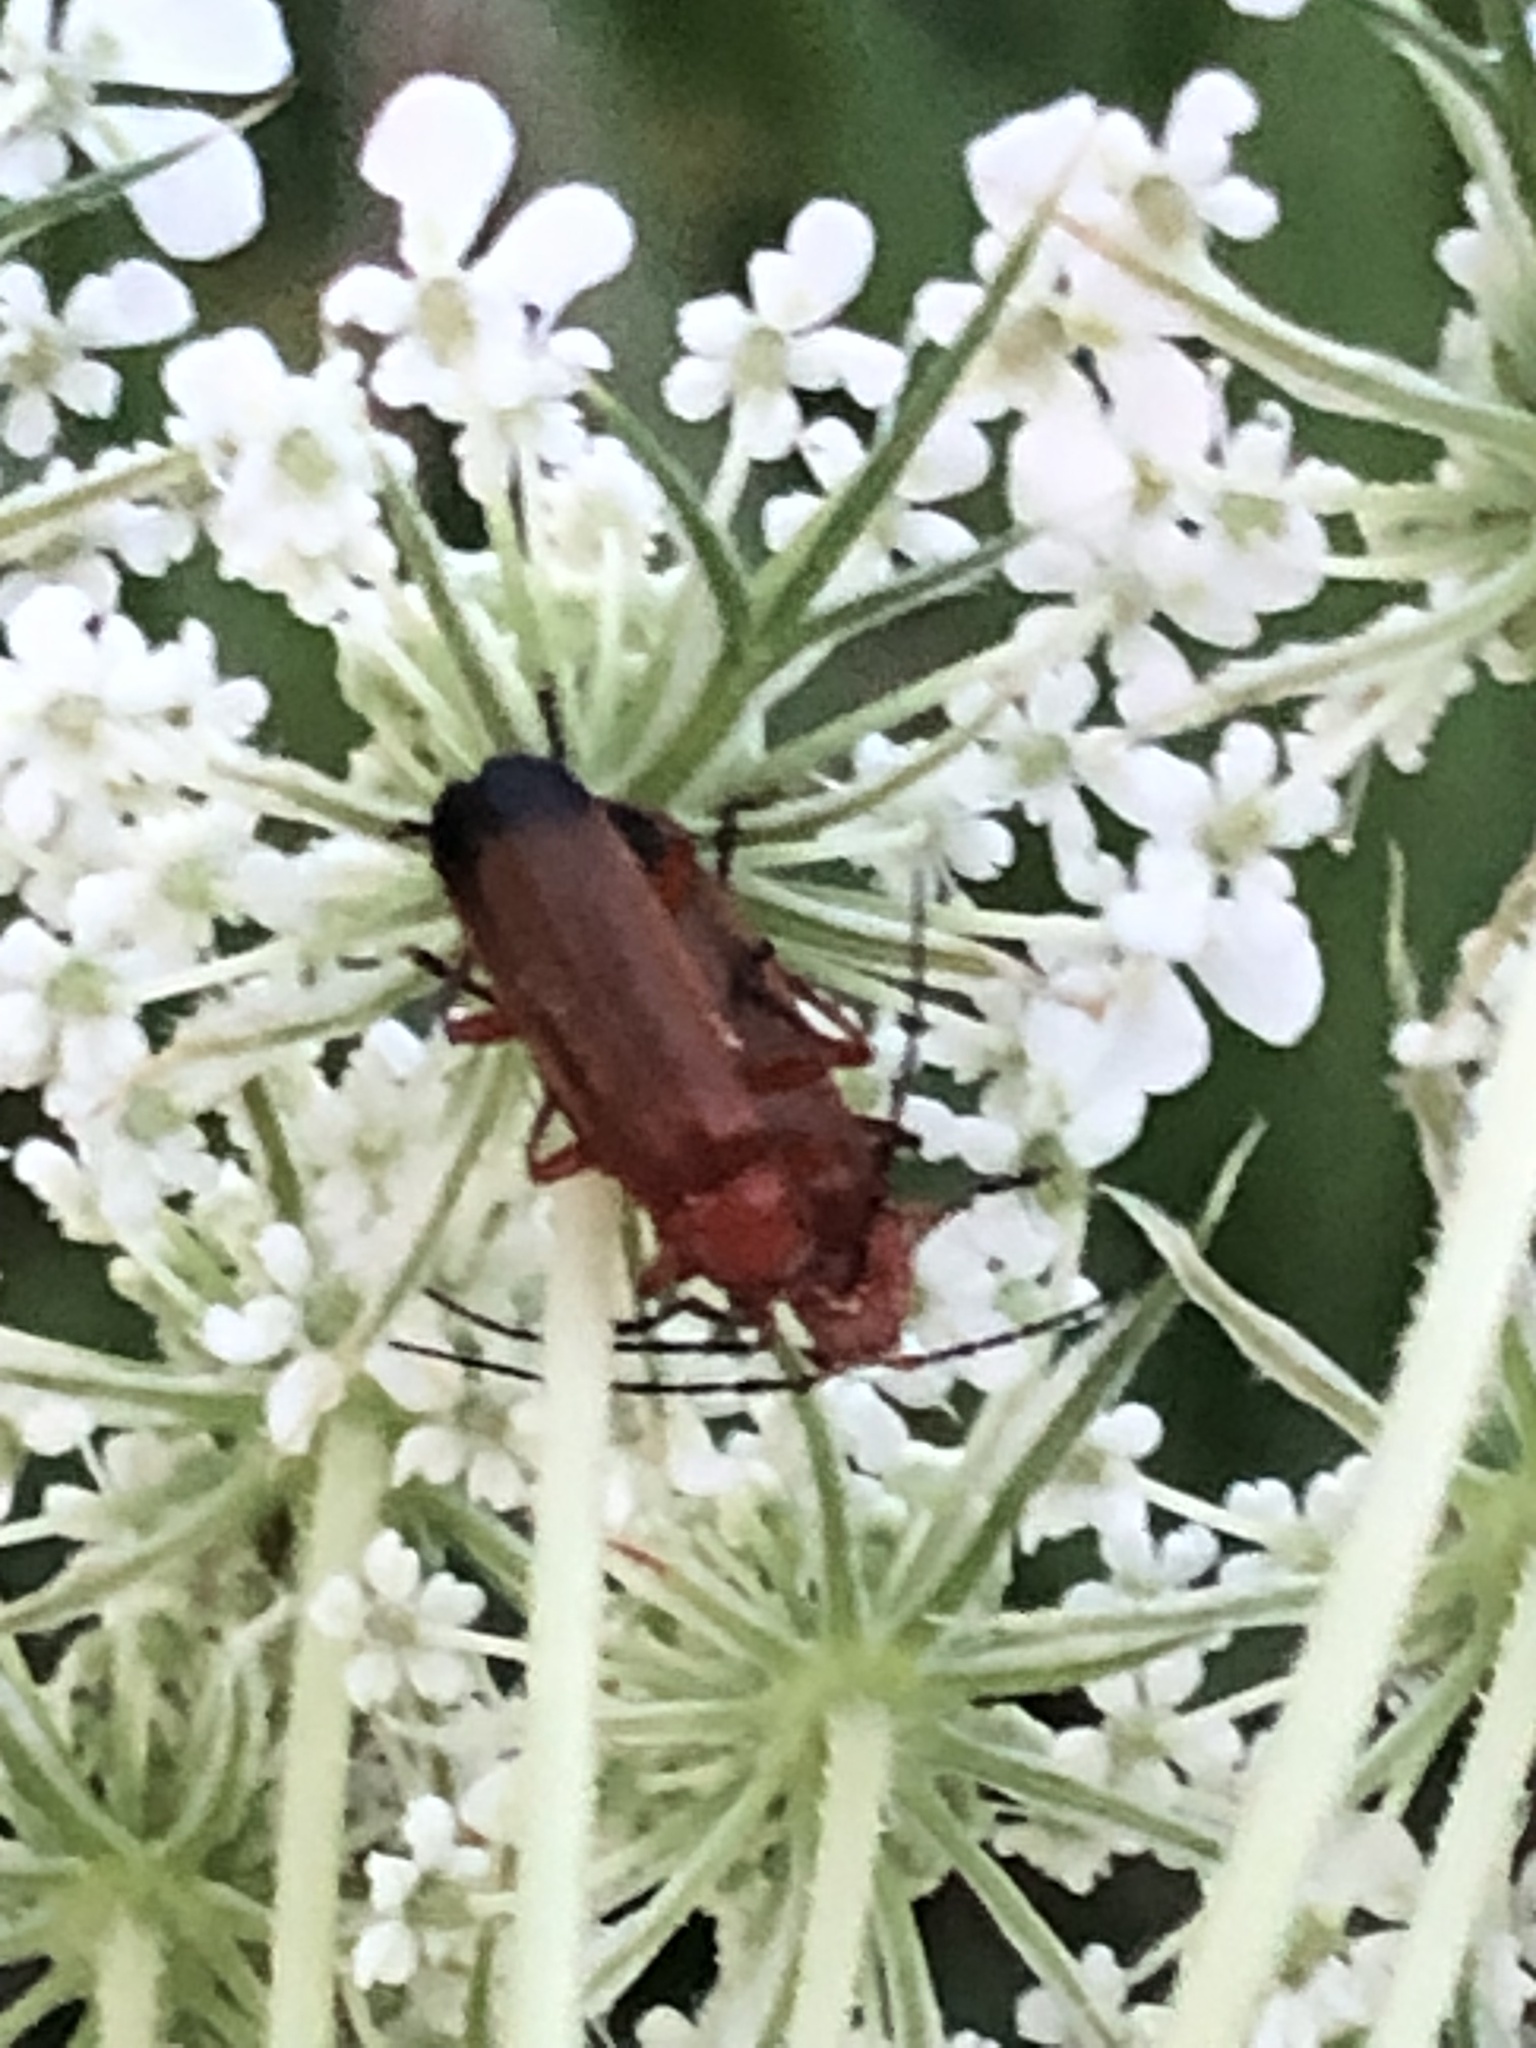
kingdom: Animalia
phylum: Arthropoda
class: Insecta
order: Coleoptera
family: Cantharidae
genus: Rhagonycha
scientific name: Rhagonycha fulva
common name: Common red soldier beetle
